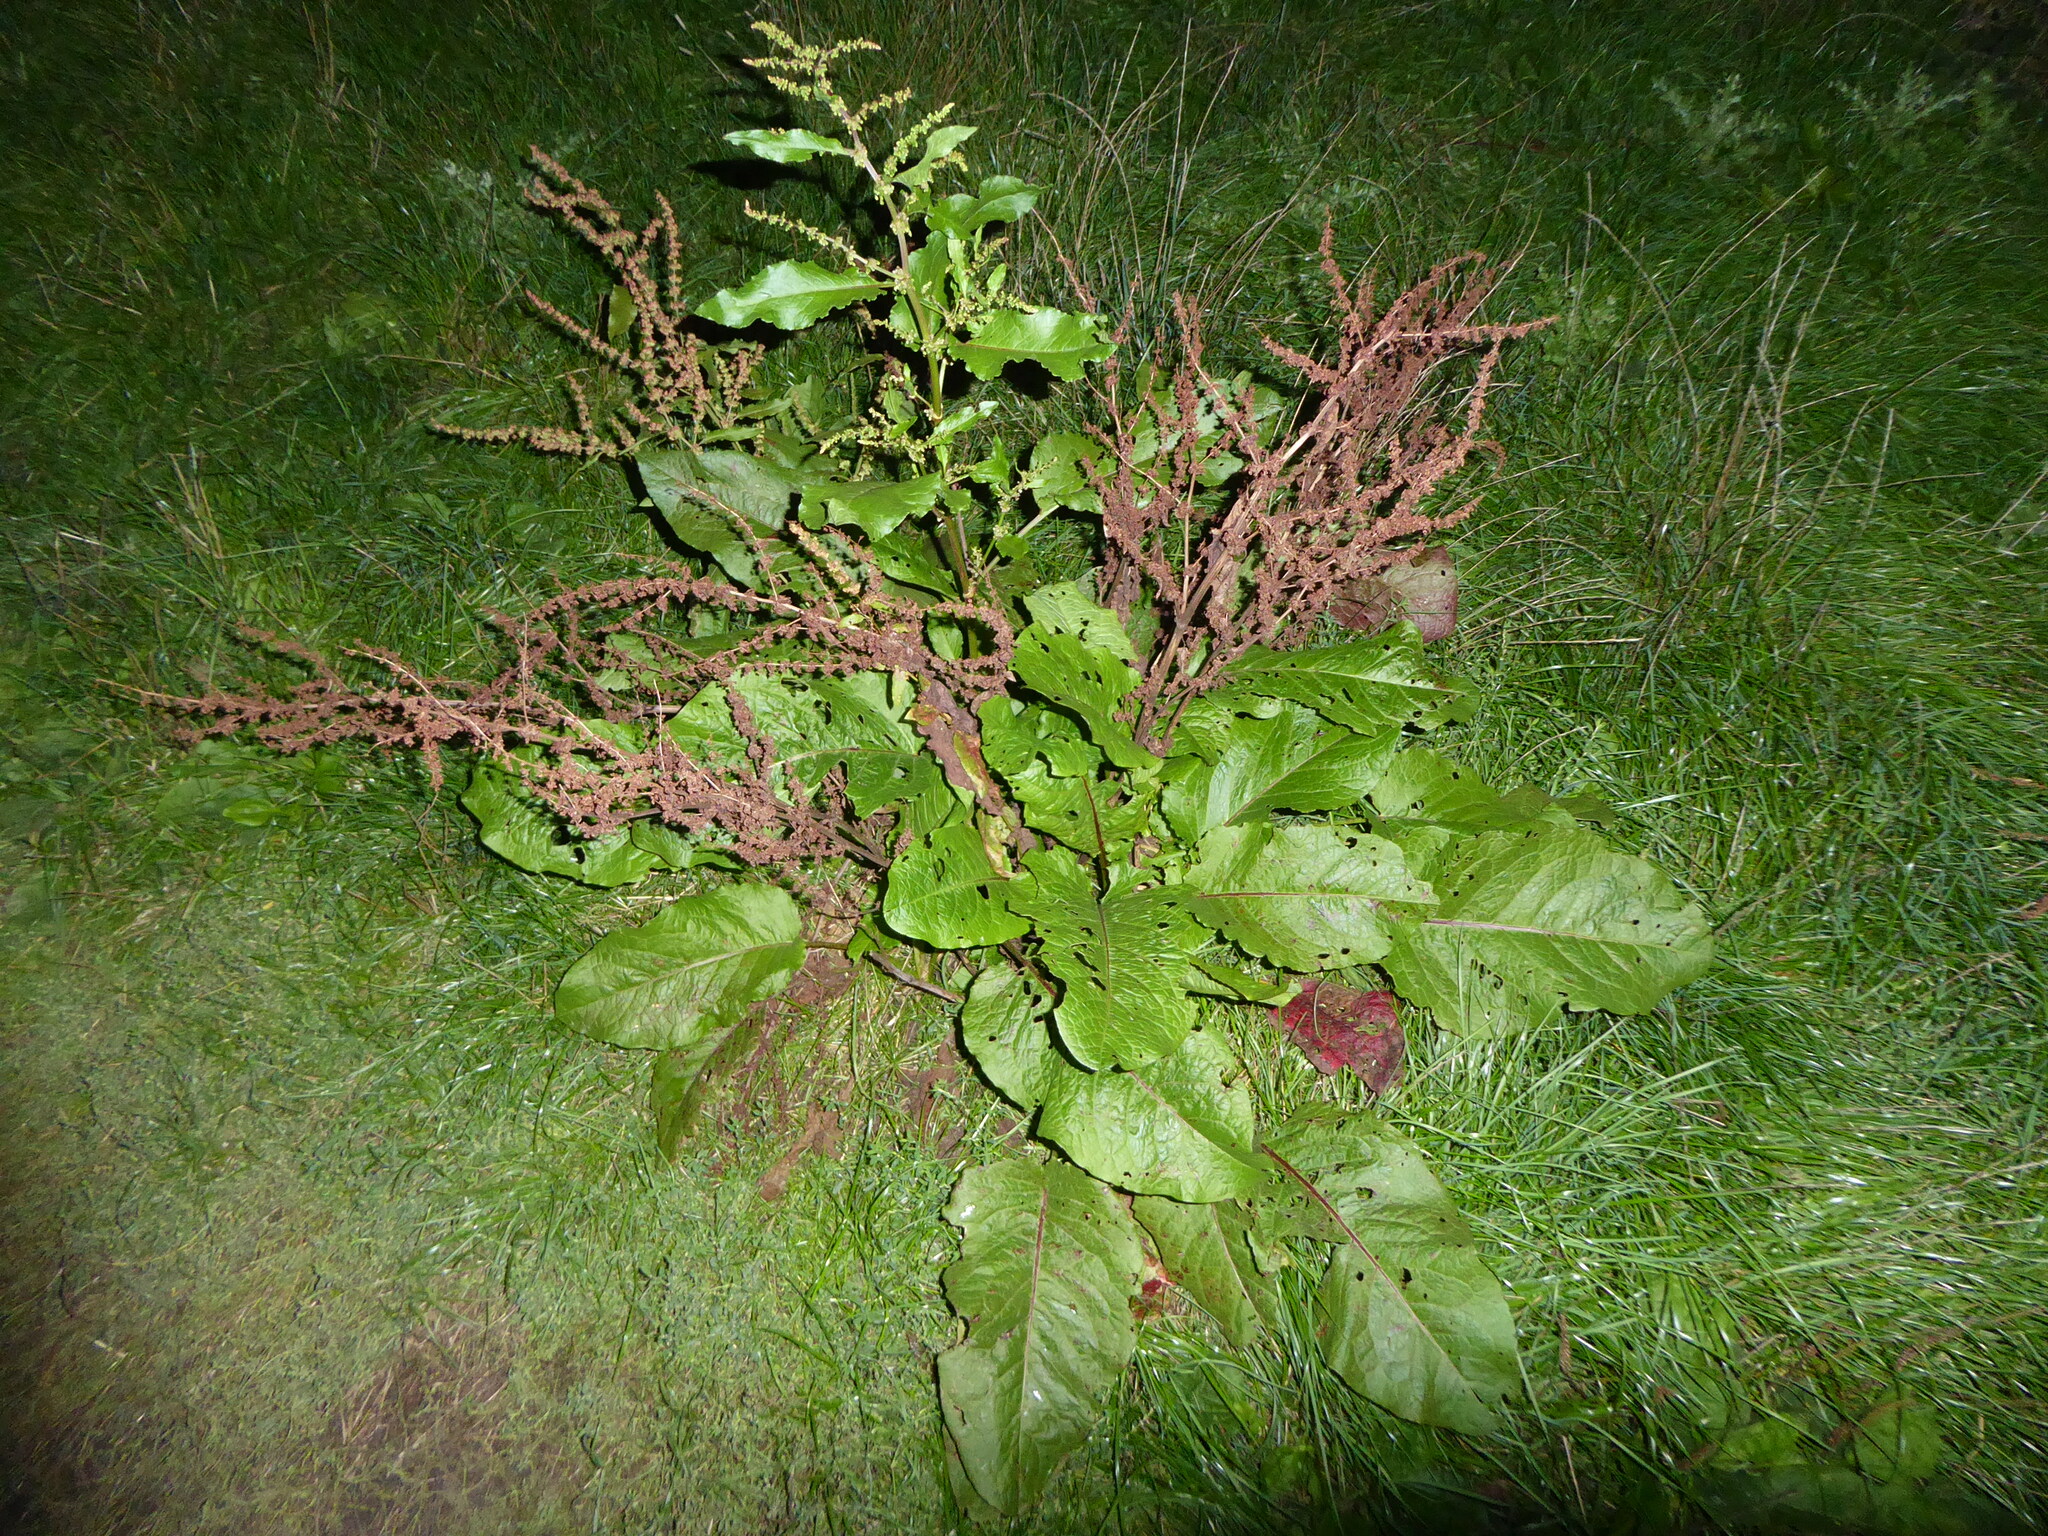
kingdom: Plantae
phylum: Tracheophyta
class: Magnoliopsida
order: Caryophyllales
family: Polygonaceae
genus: Rumex
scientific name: Rumex obtusifolius
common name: Bitter dock
